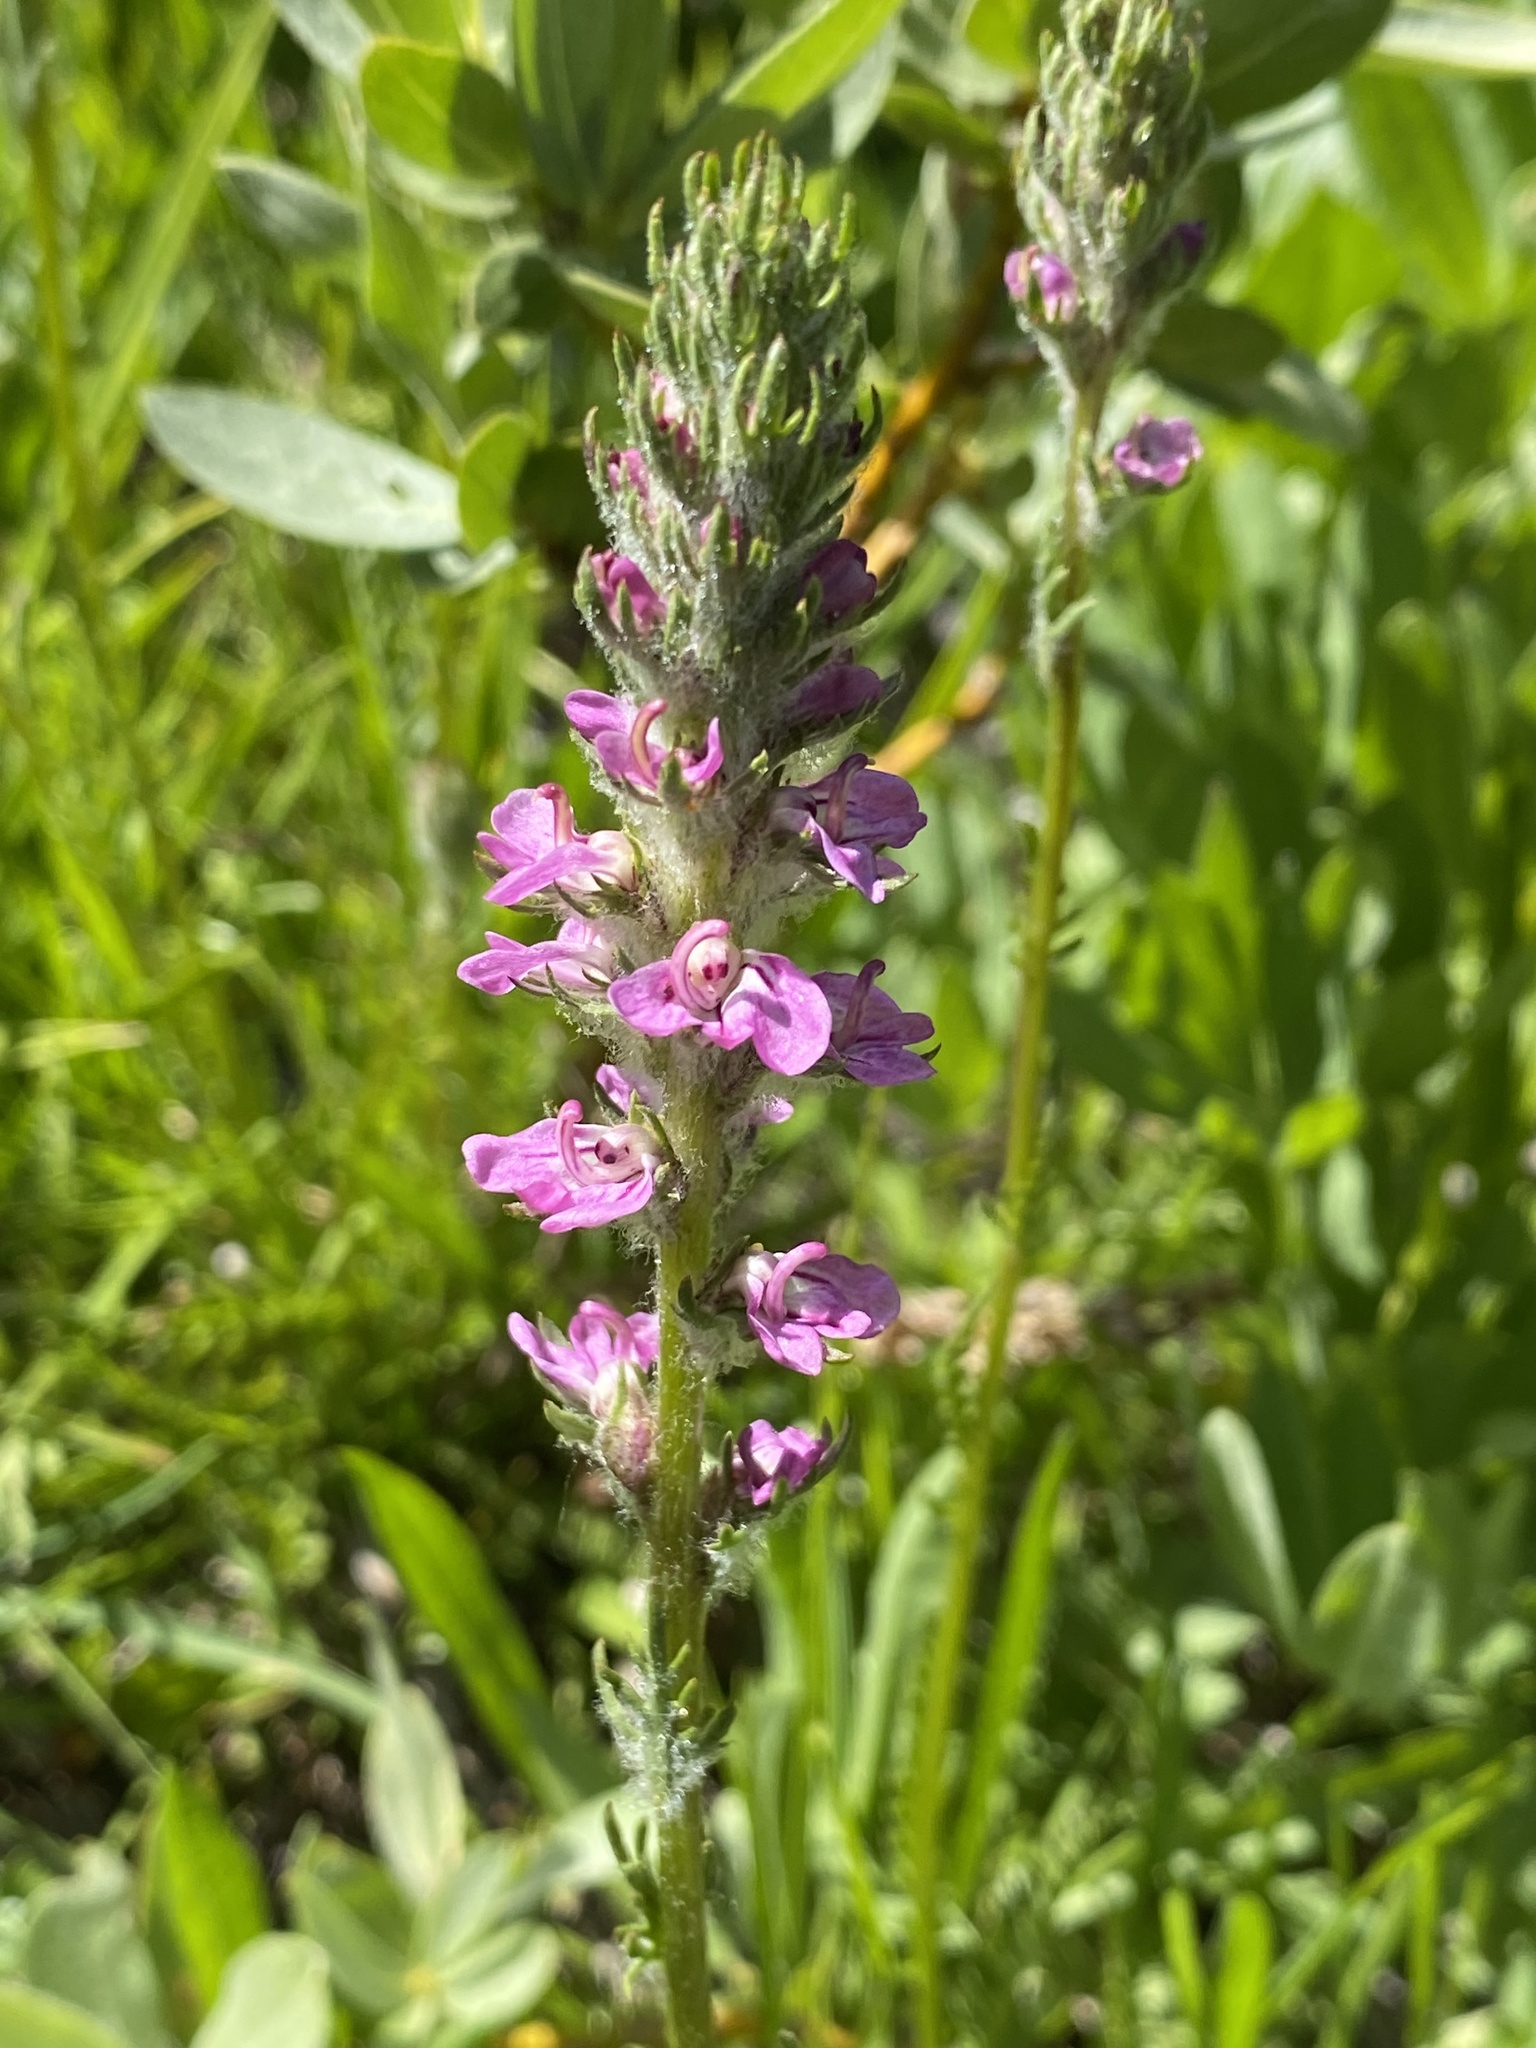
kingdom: Plantae
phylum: Tracheophyta
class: Magnoliopsida
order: Lamiales
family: Orobanchaceae
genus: Pedicularis
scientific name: Pedicularis attollens
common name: Slender pedicularis
